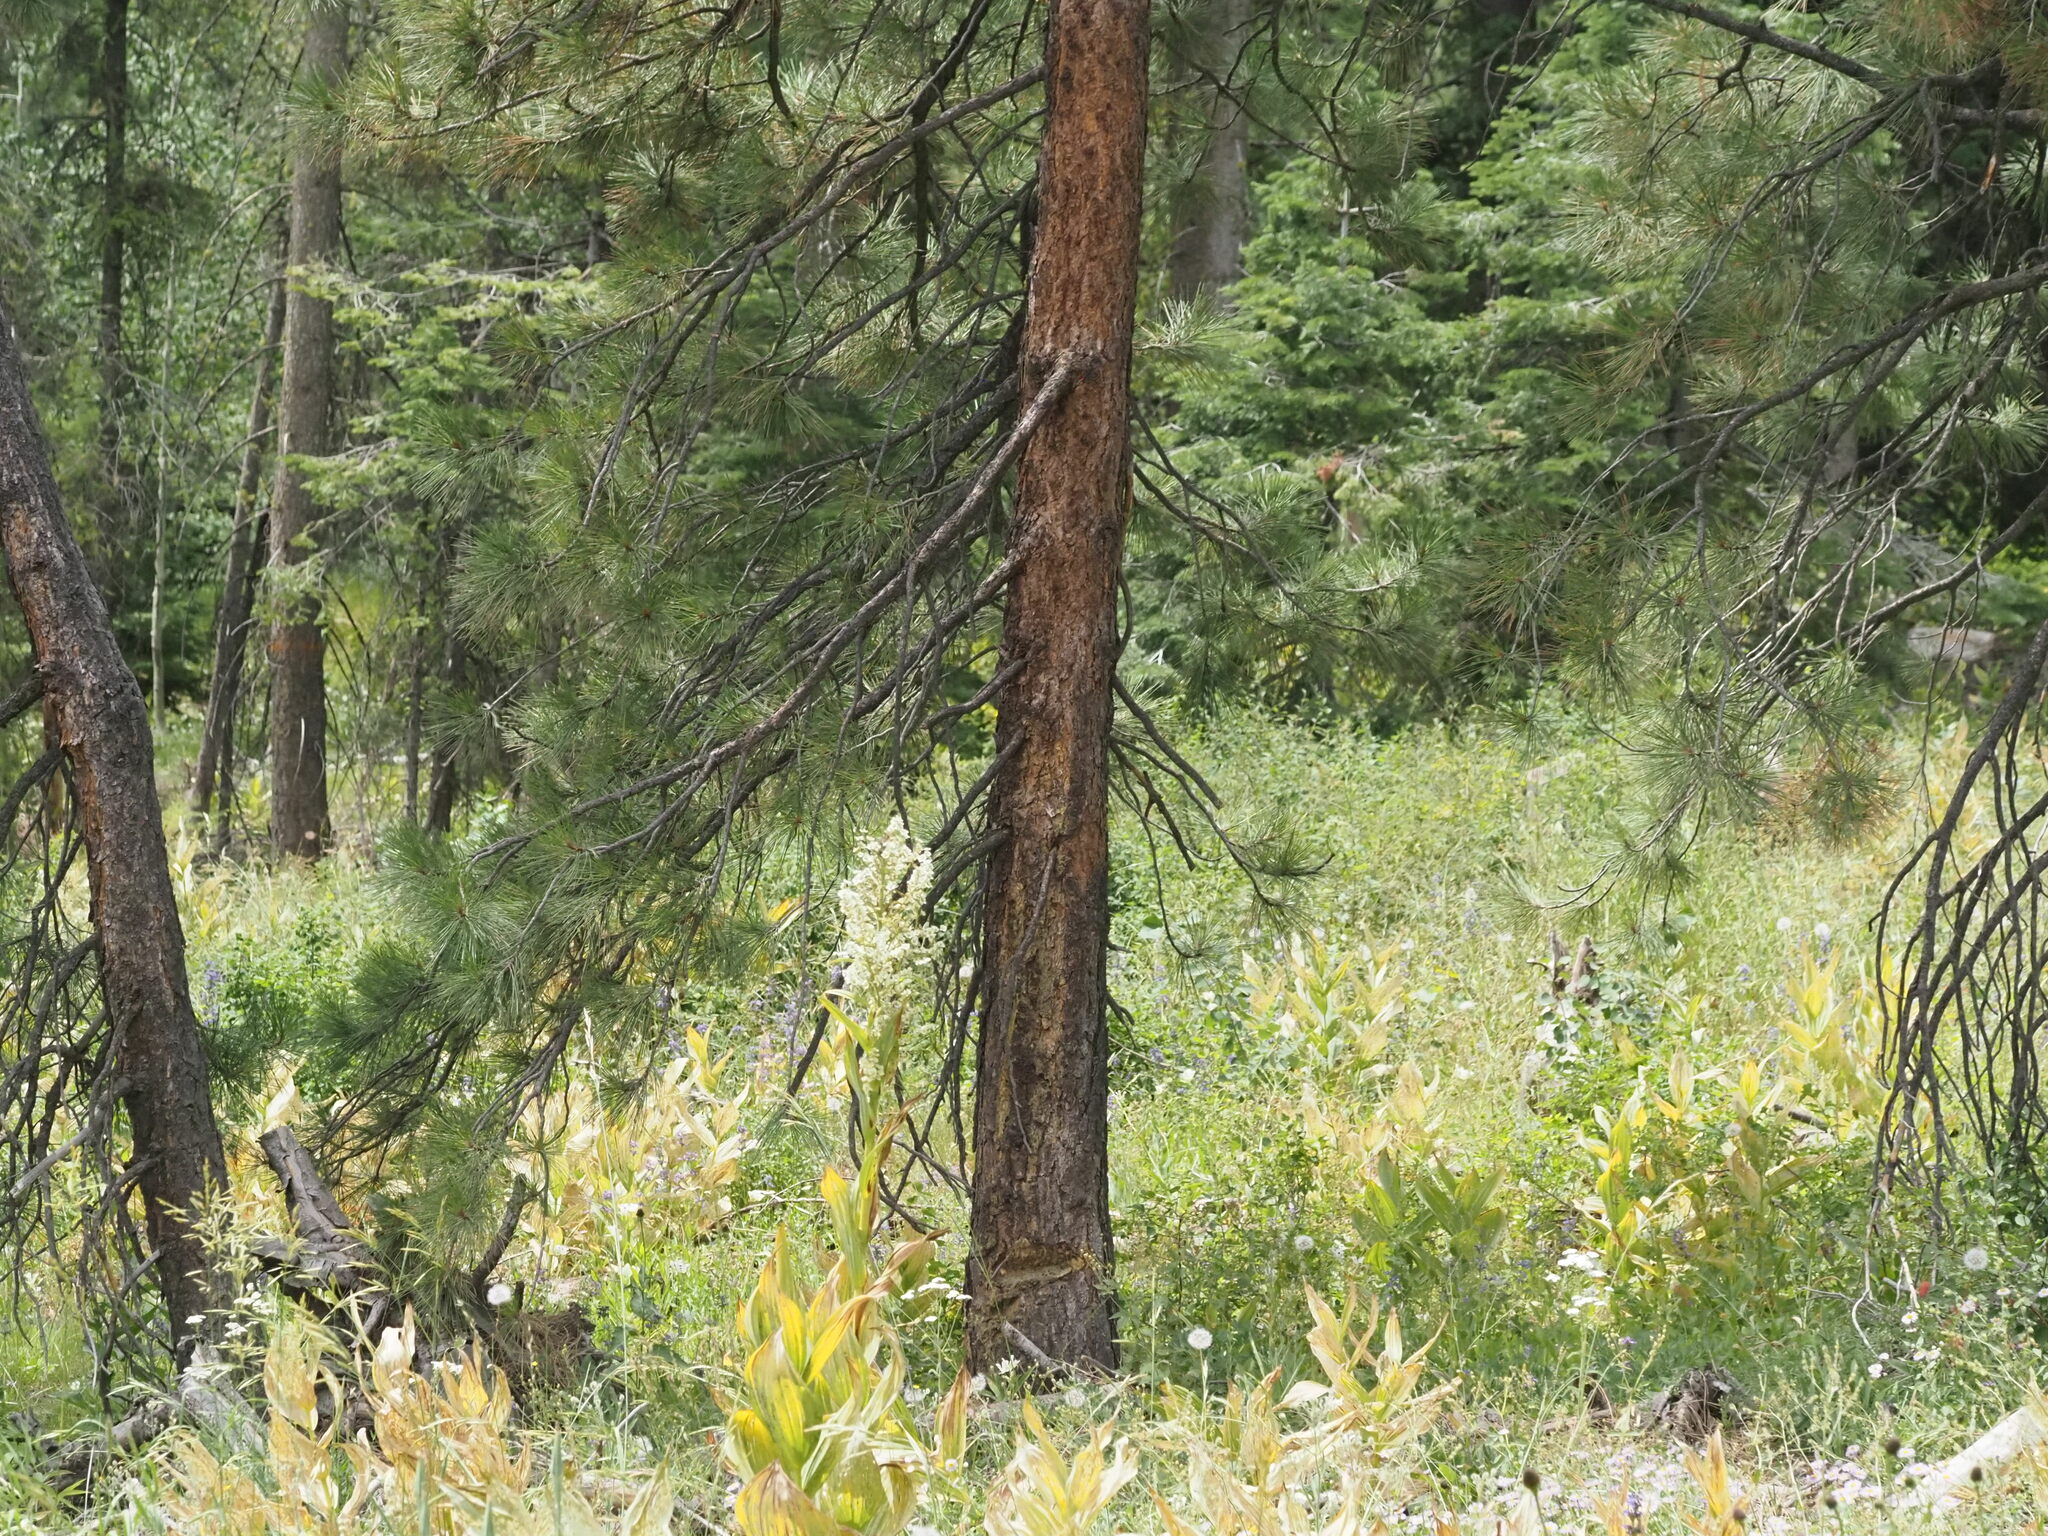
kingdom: Plantae
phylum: Tracheophyta
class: Pinopsida
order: Pinales
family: Pinaceae
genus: Pinus
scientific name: Pinus ponderosa
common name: Western yellow-pine
